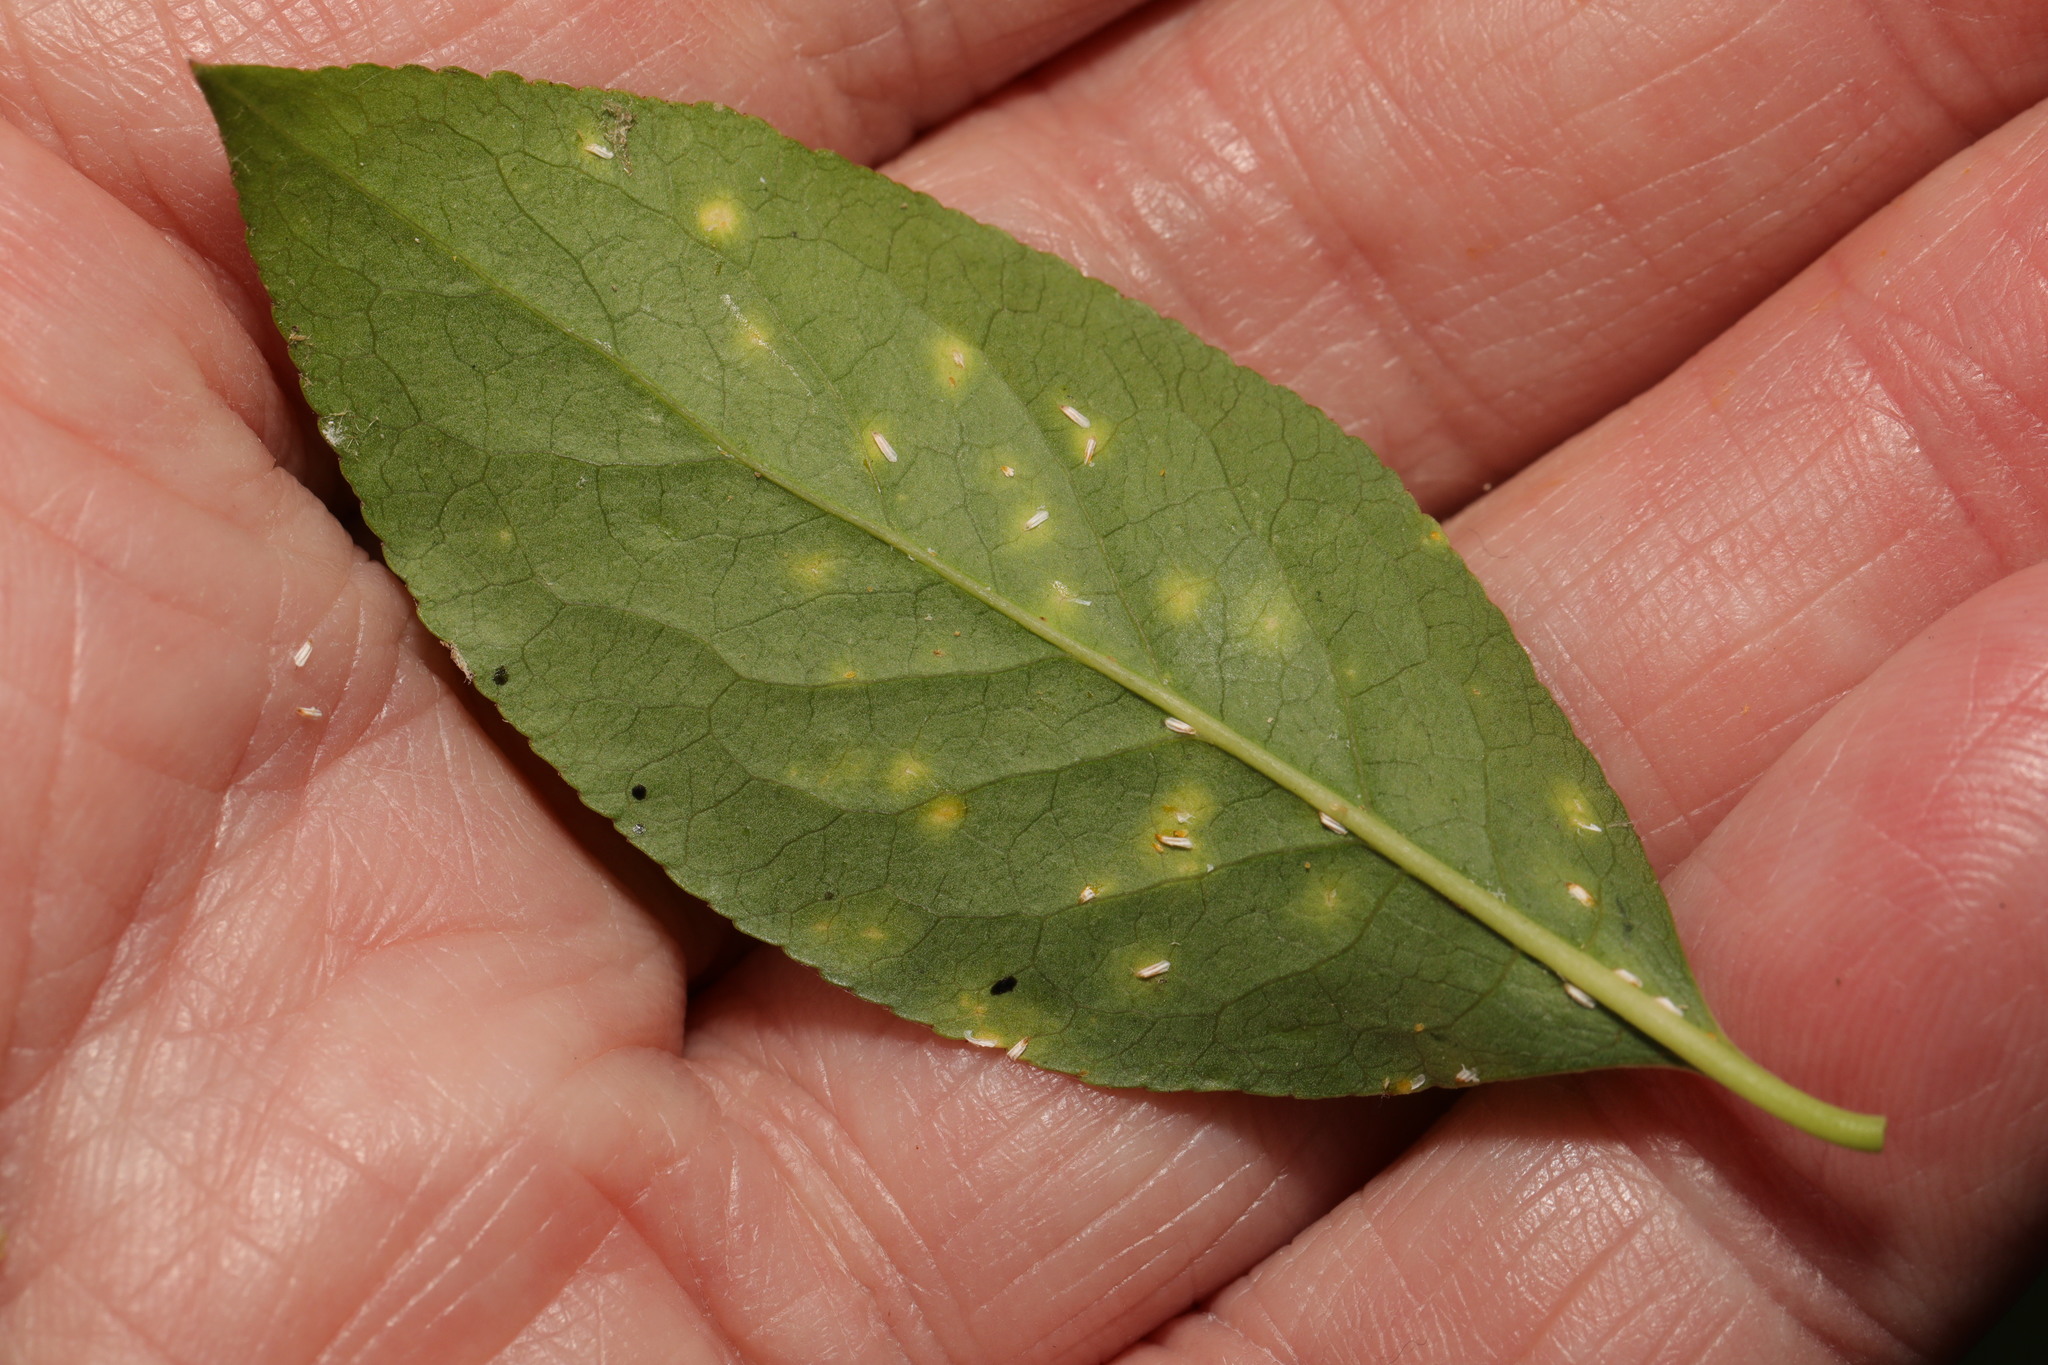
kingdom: Animalia
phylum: Arthropoda
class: Insecta
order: Hemiptera
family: Diaspididae
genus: Unaspis
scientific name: Unaspis euonymi
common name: Euonymus scale
